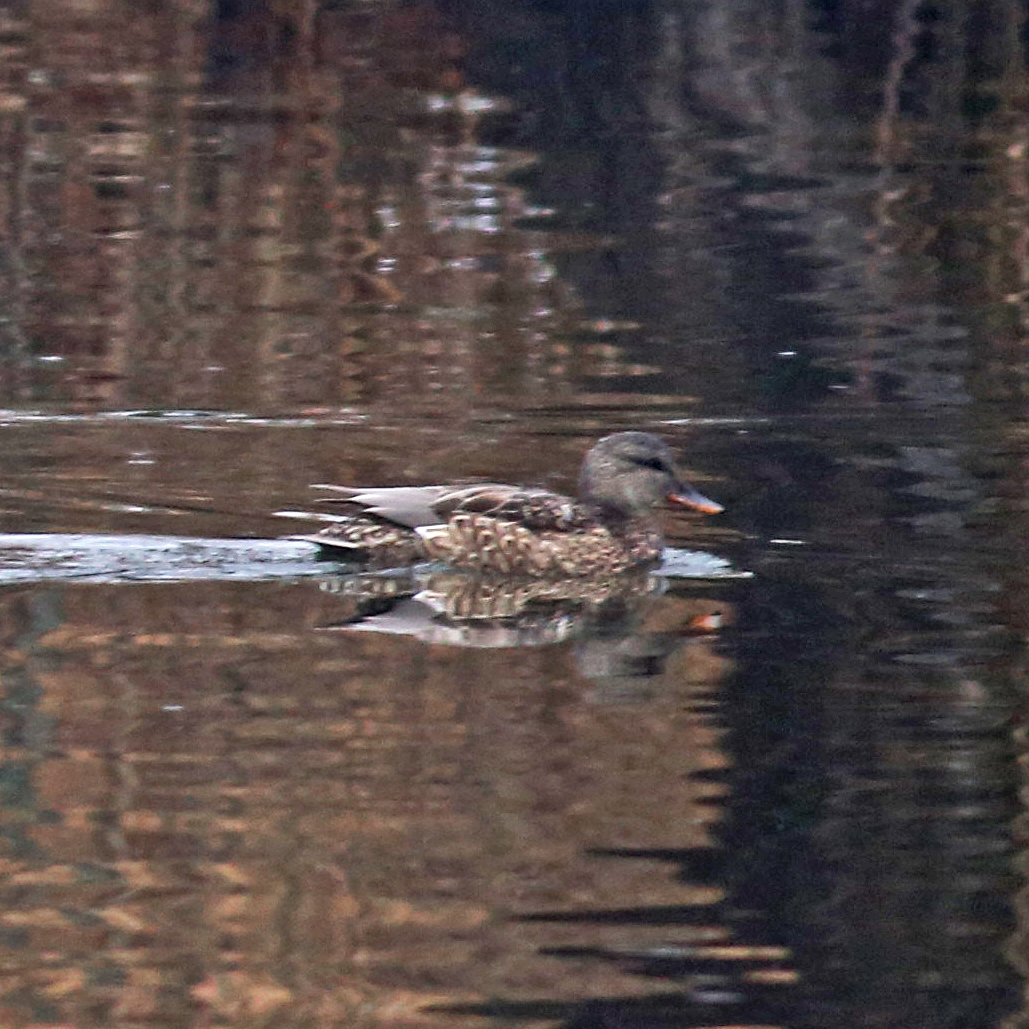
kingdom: Animalia
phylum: Chordata
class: Aves
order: Anseriformes
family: Anatidae
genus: Mareca
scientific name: Mareca strepera
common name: Gadwall
